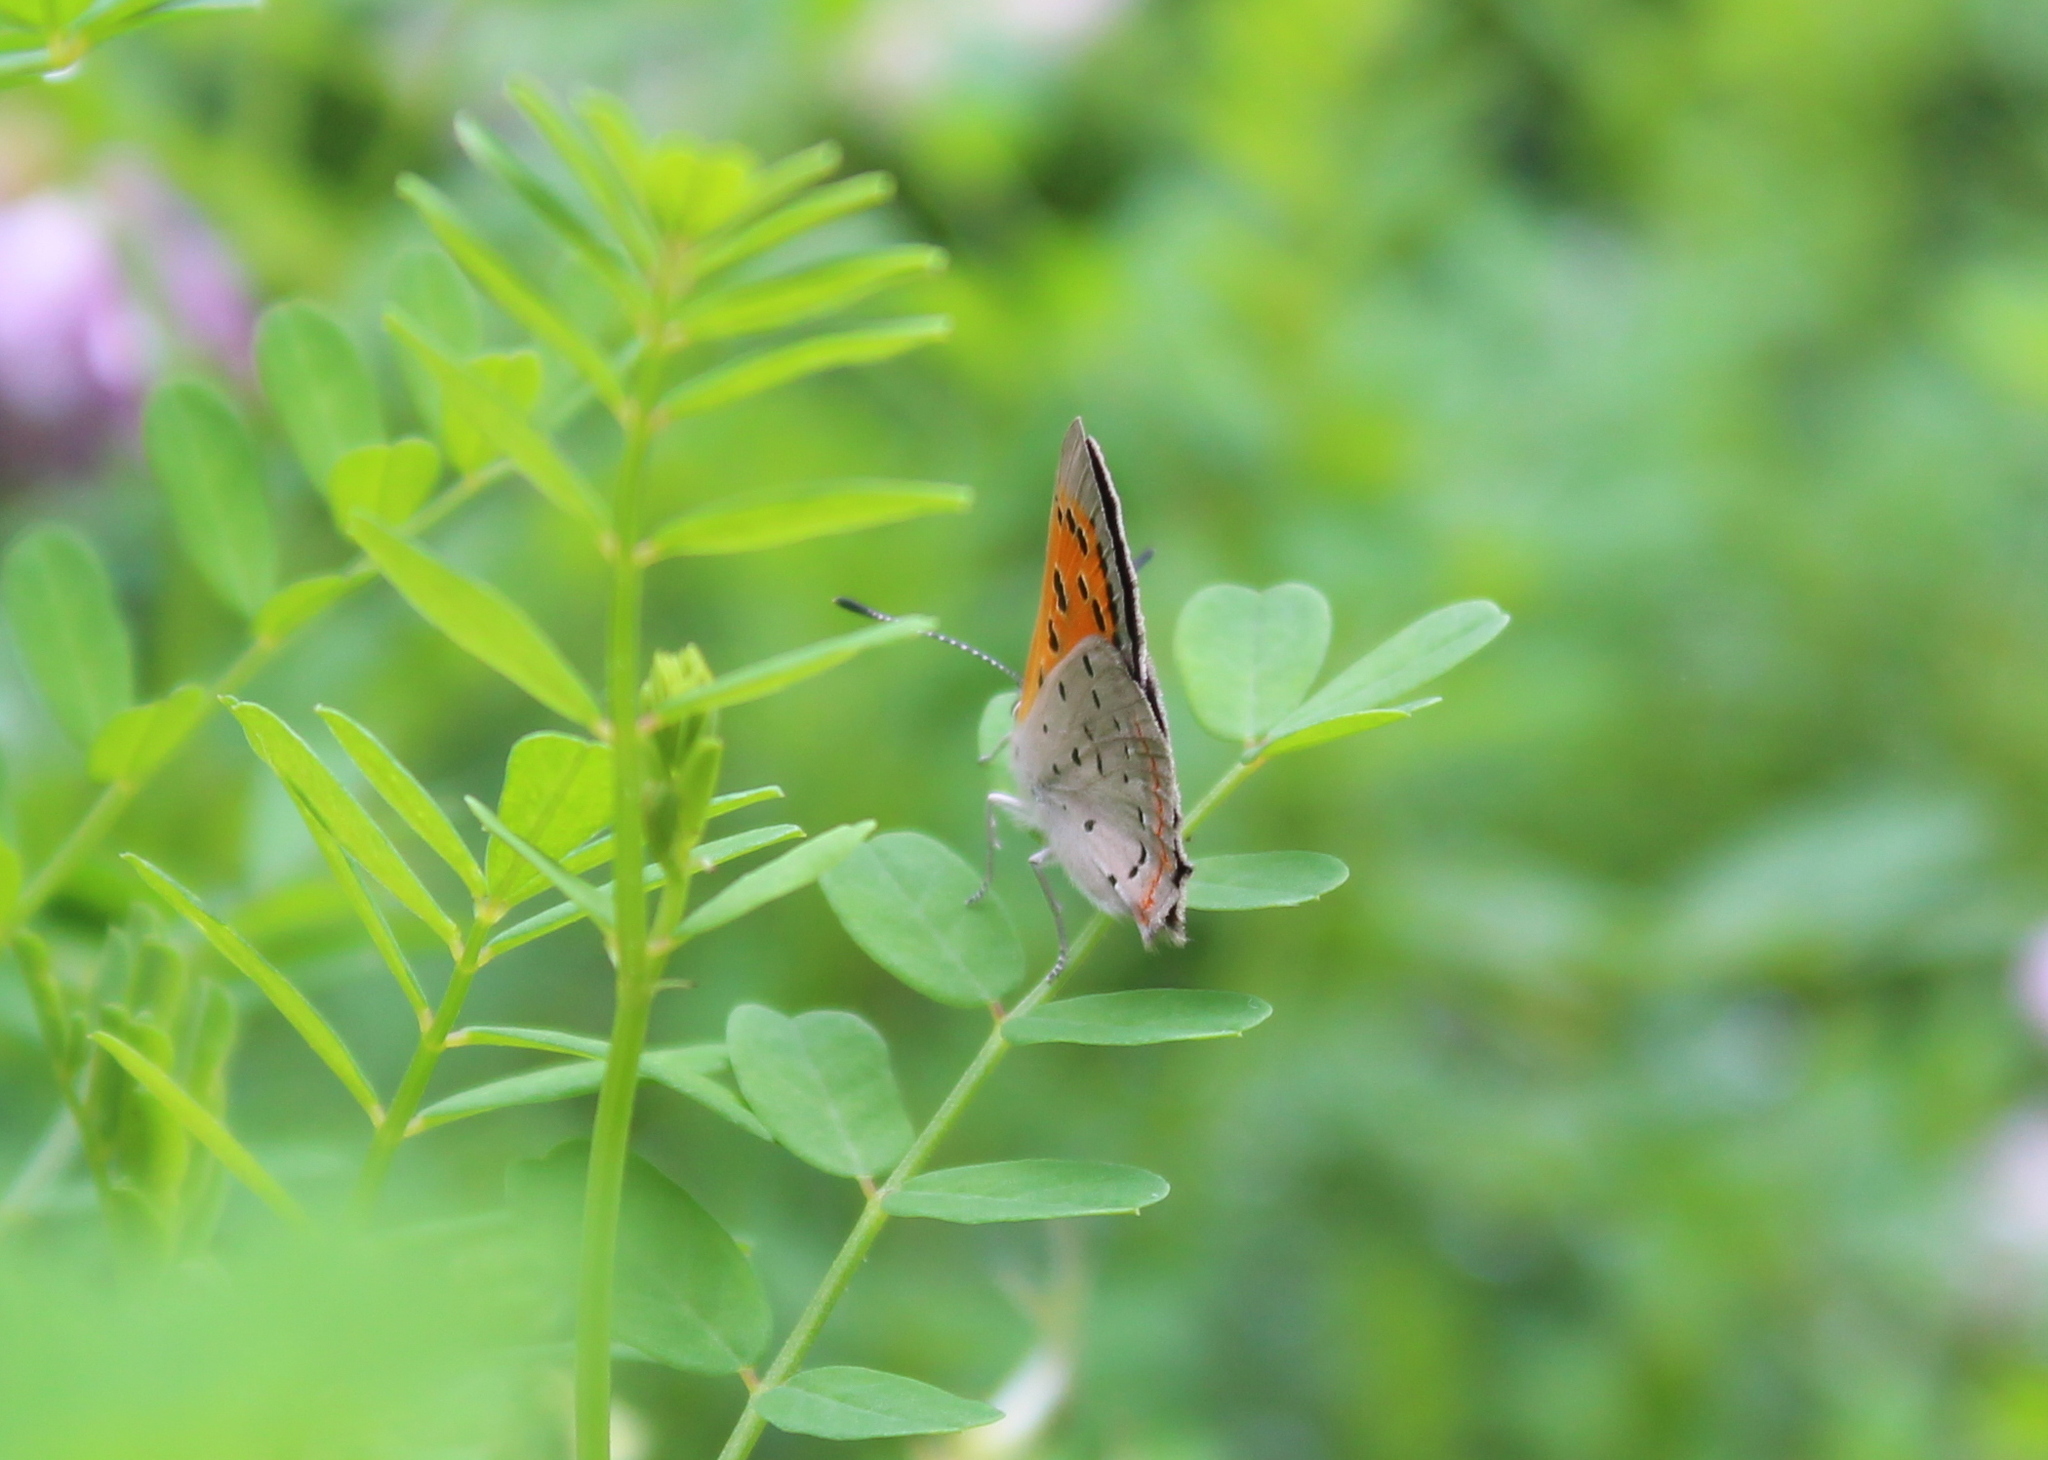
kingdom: Animalia
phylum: Arthropoda
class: Insecta
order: Lepidoptera
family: Lycaenidae
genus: Lycaena
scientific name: Lycaena hypophlaeas
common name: American copper
